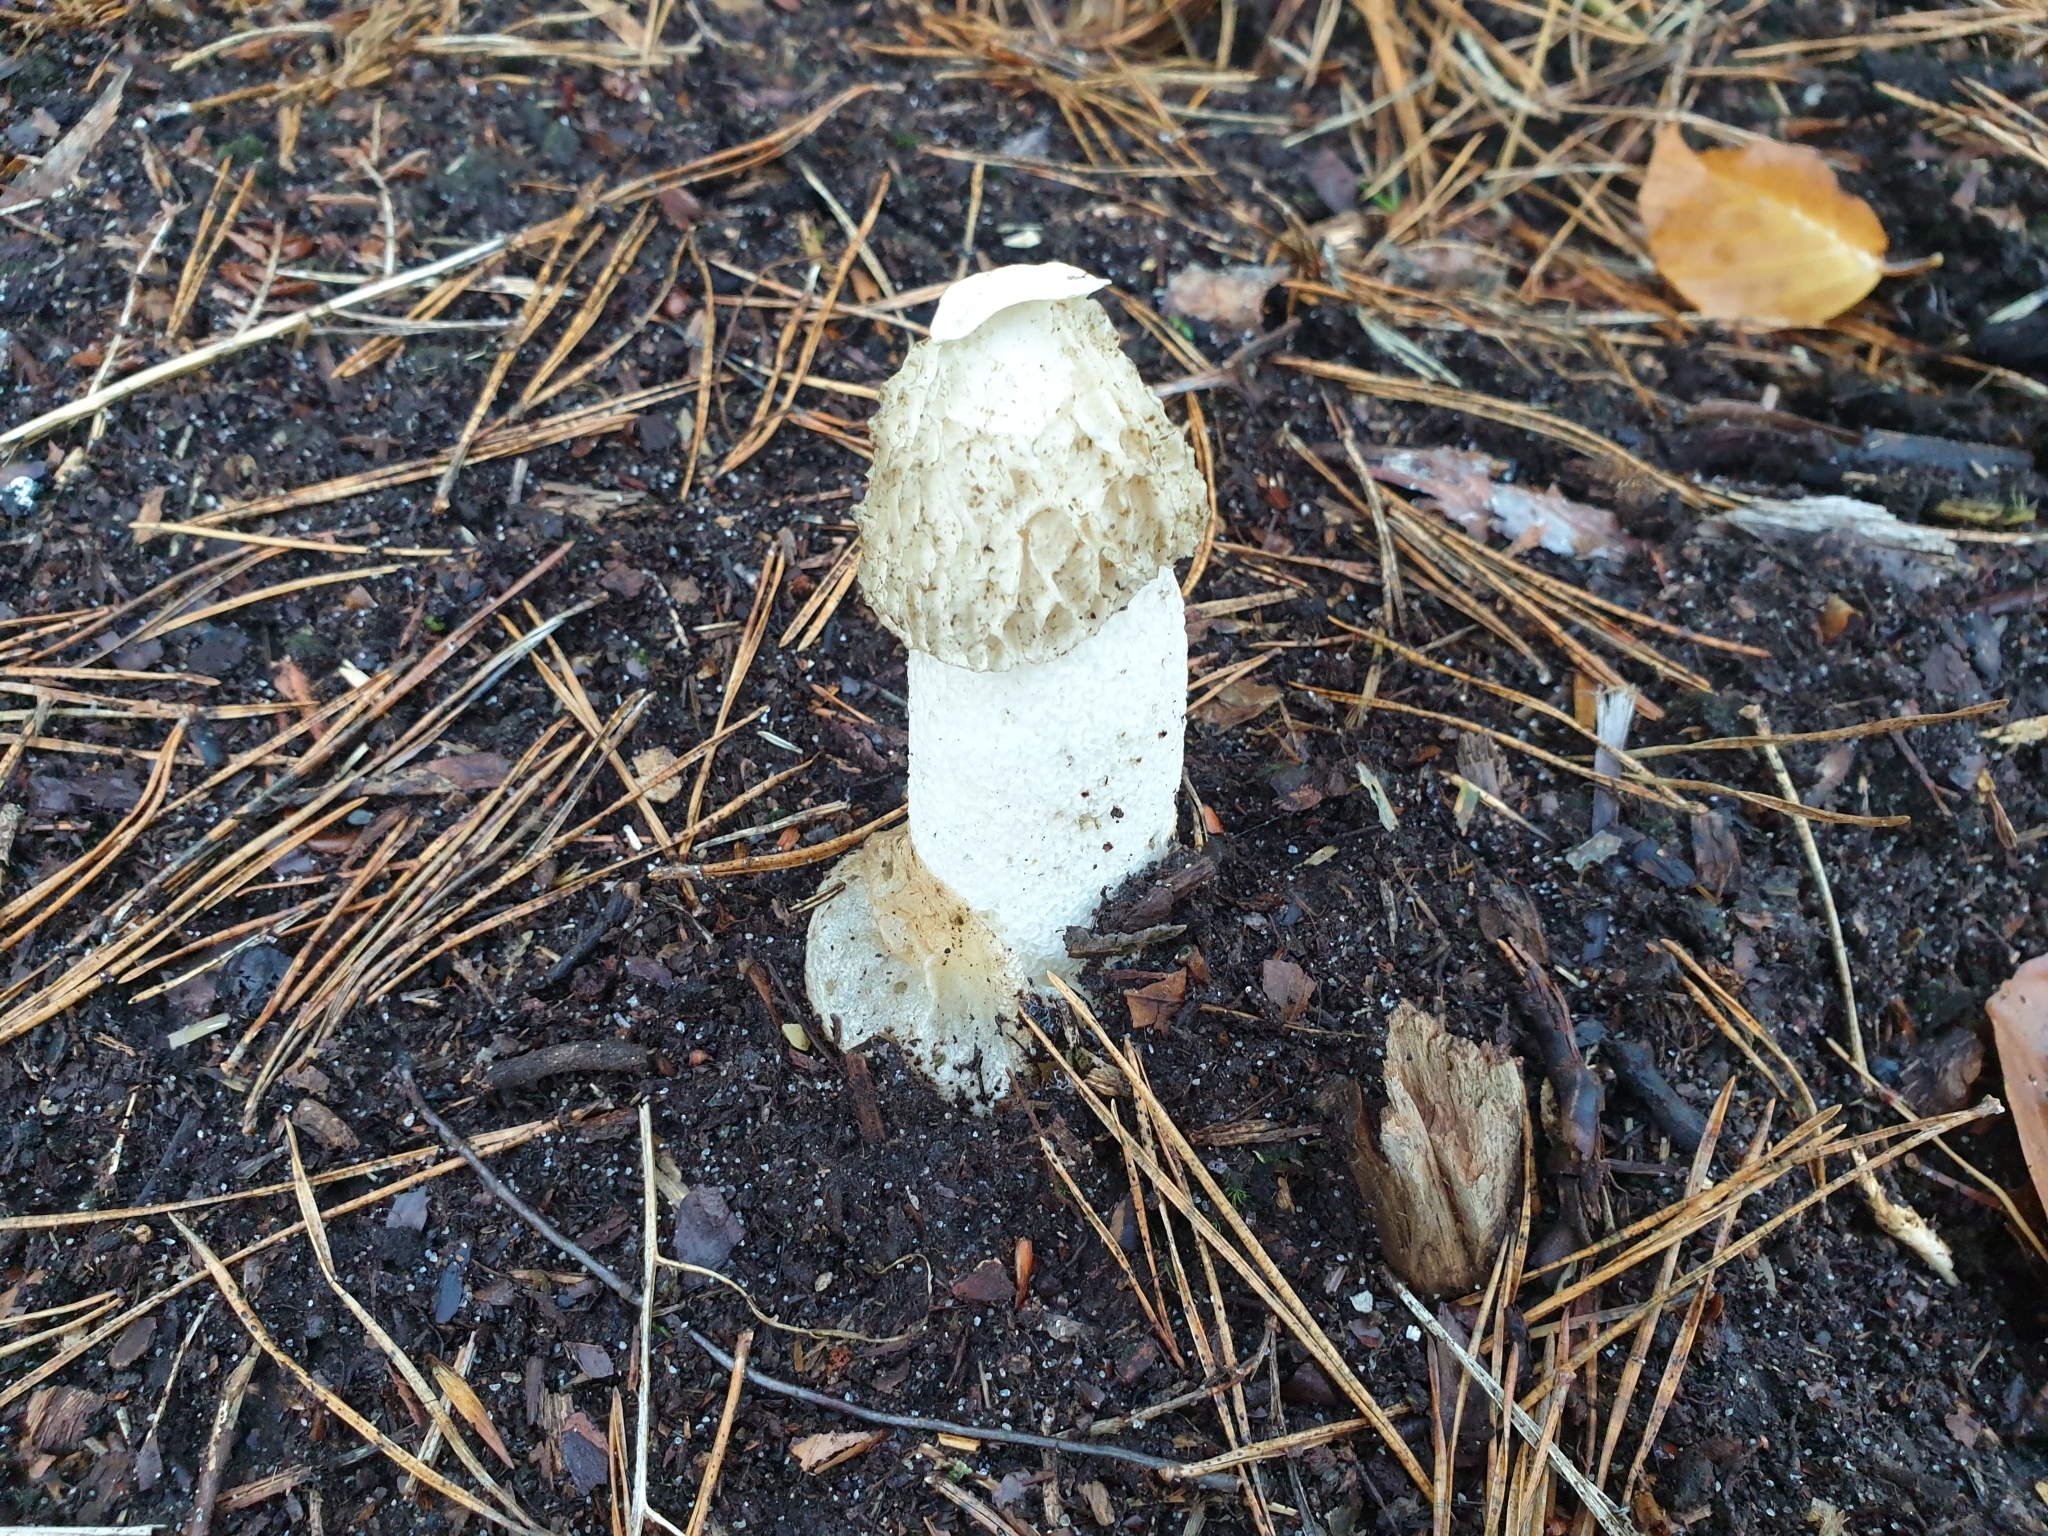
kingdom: Fungi
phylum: Basidiomycota
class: Agaricomycetes
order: Phallales
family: Phallaceae
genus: Phallus
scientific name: Phallus impudicus
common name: Common stinkhorn
